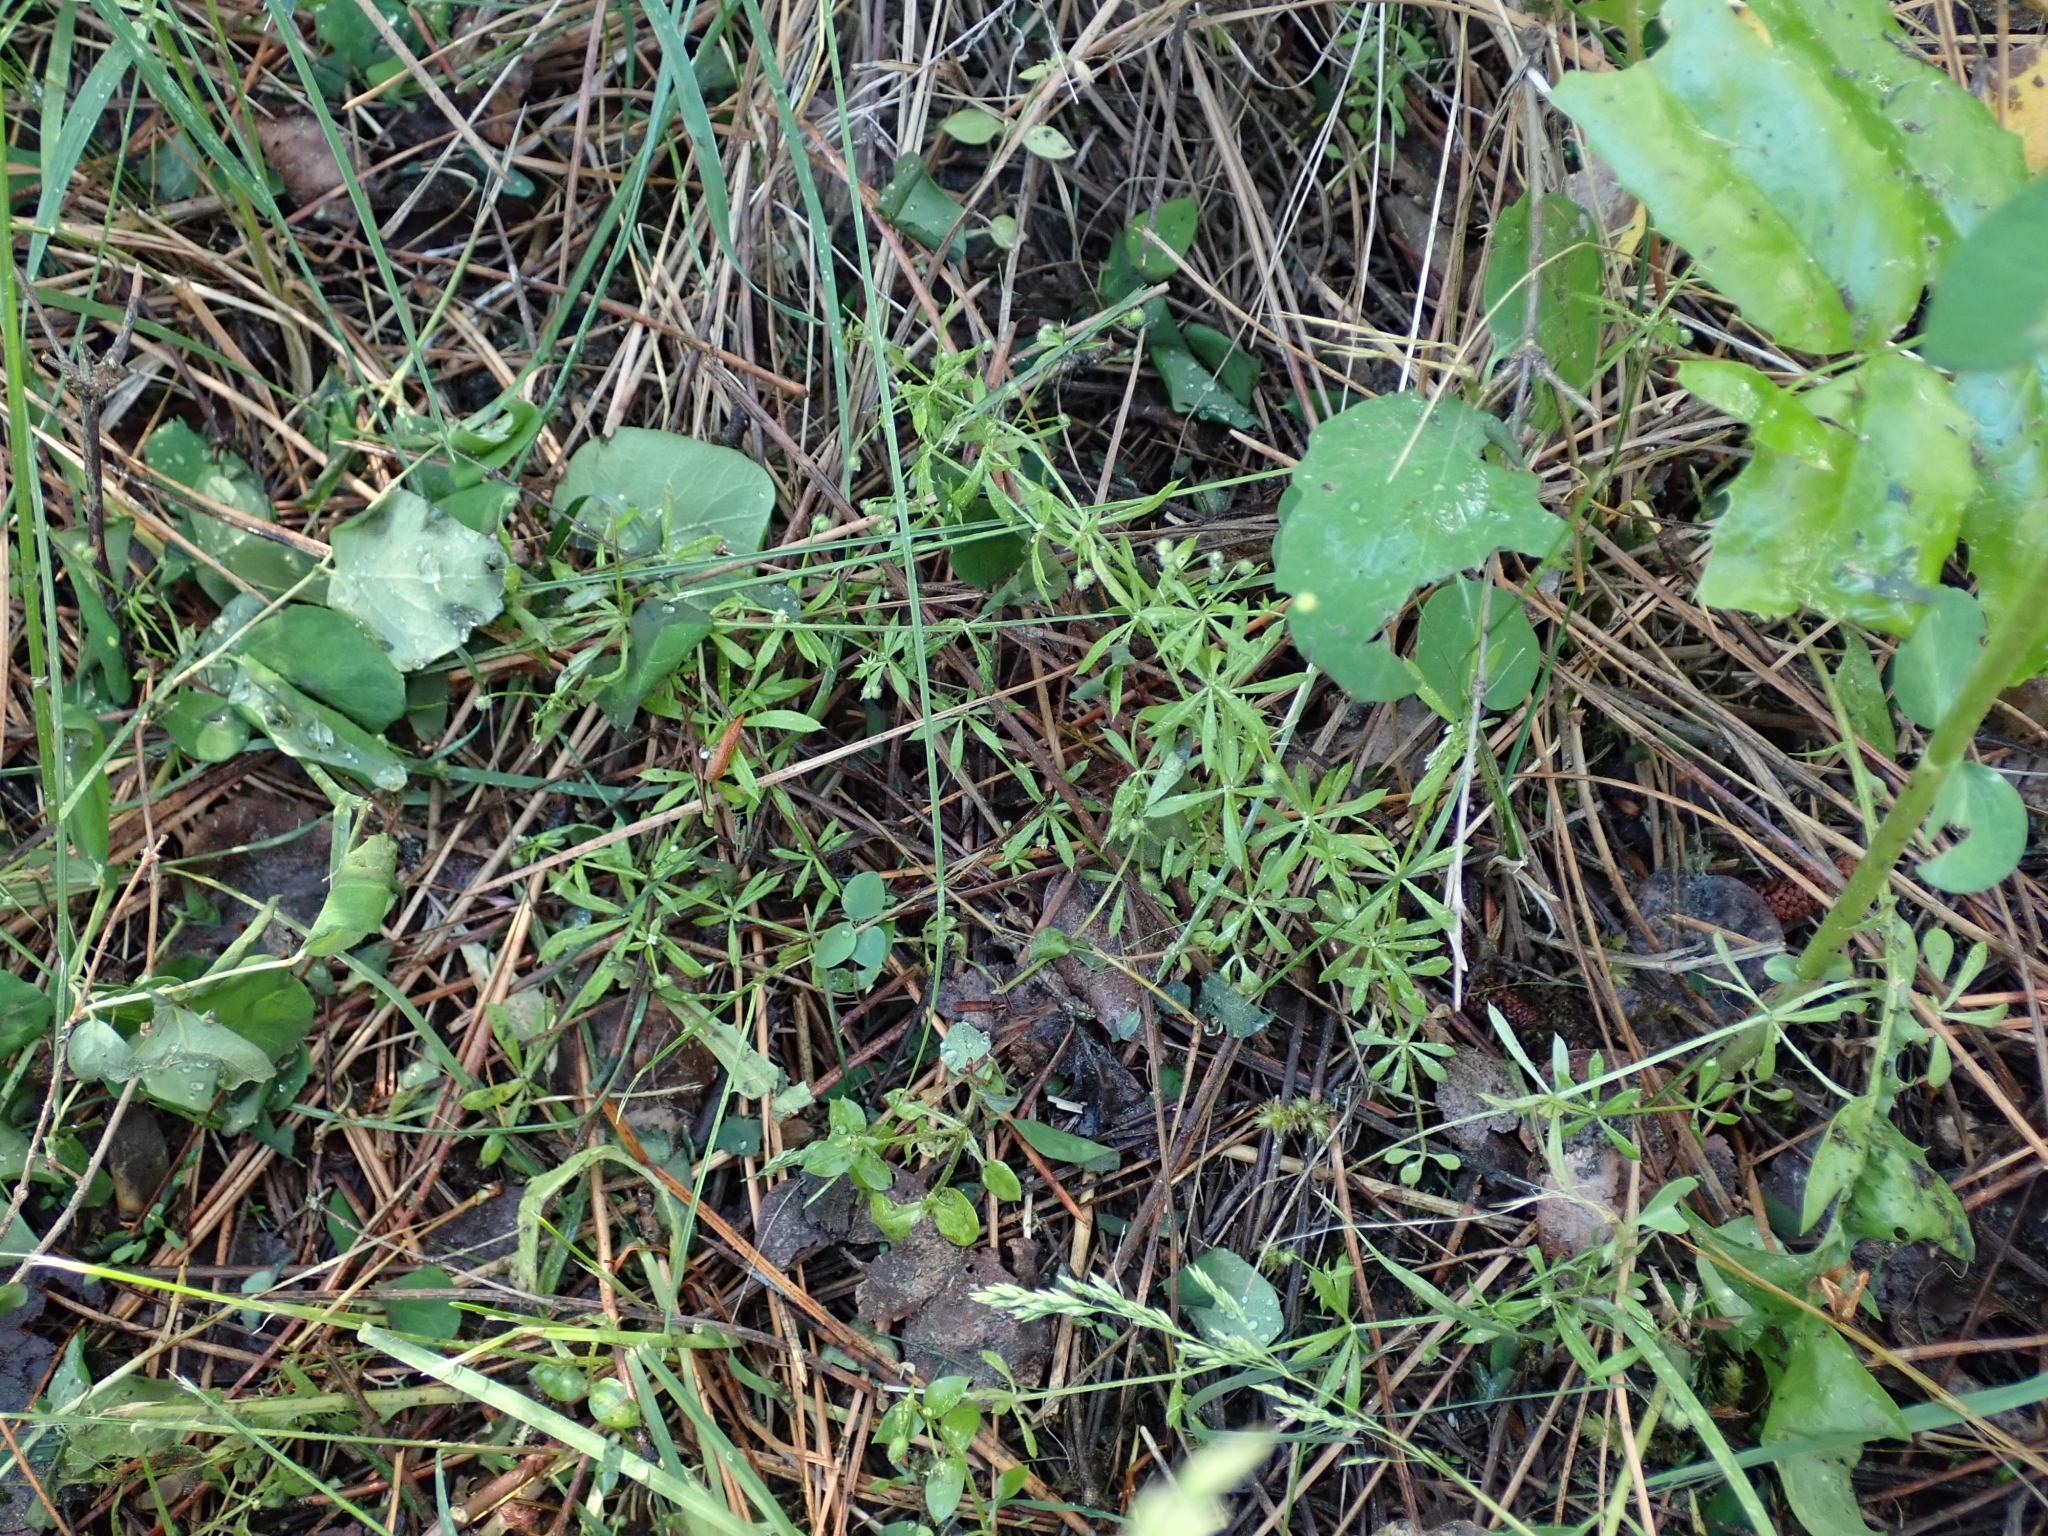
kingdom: Plantae
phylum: Tracheophyta
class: Magnoliopsida
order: Gentianales
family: Rubiaceae
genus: Galium
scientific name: Galium aparine
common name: Cleavers
